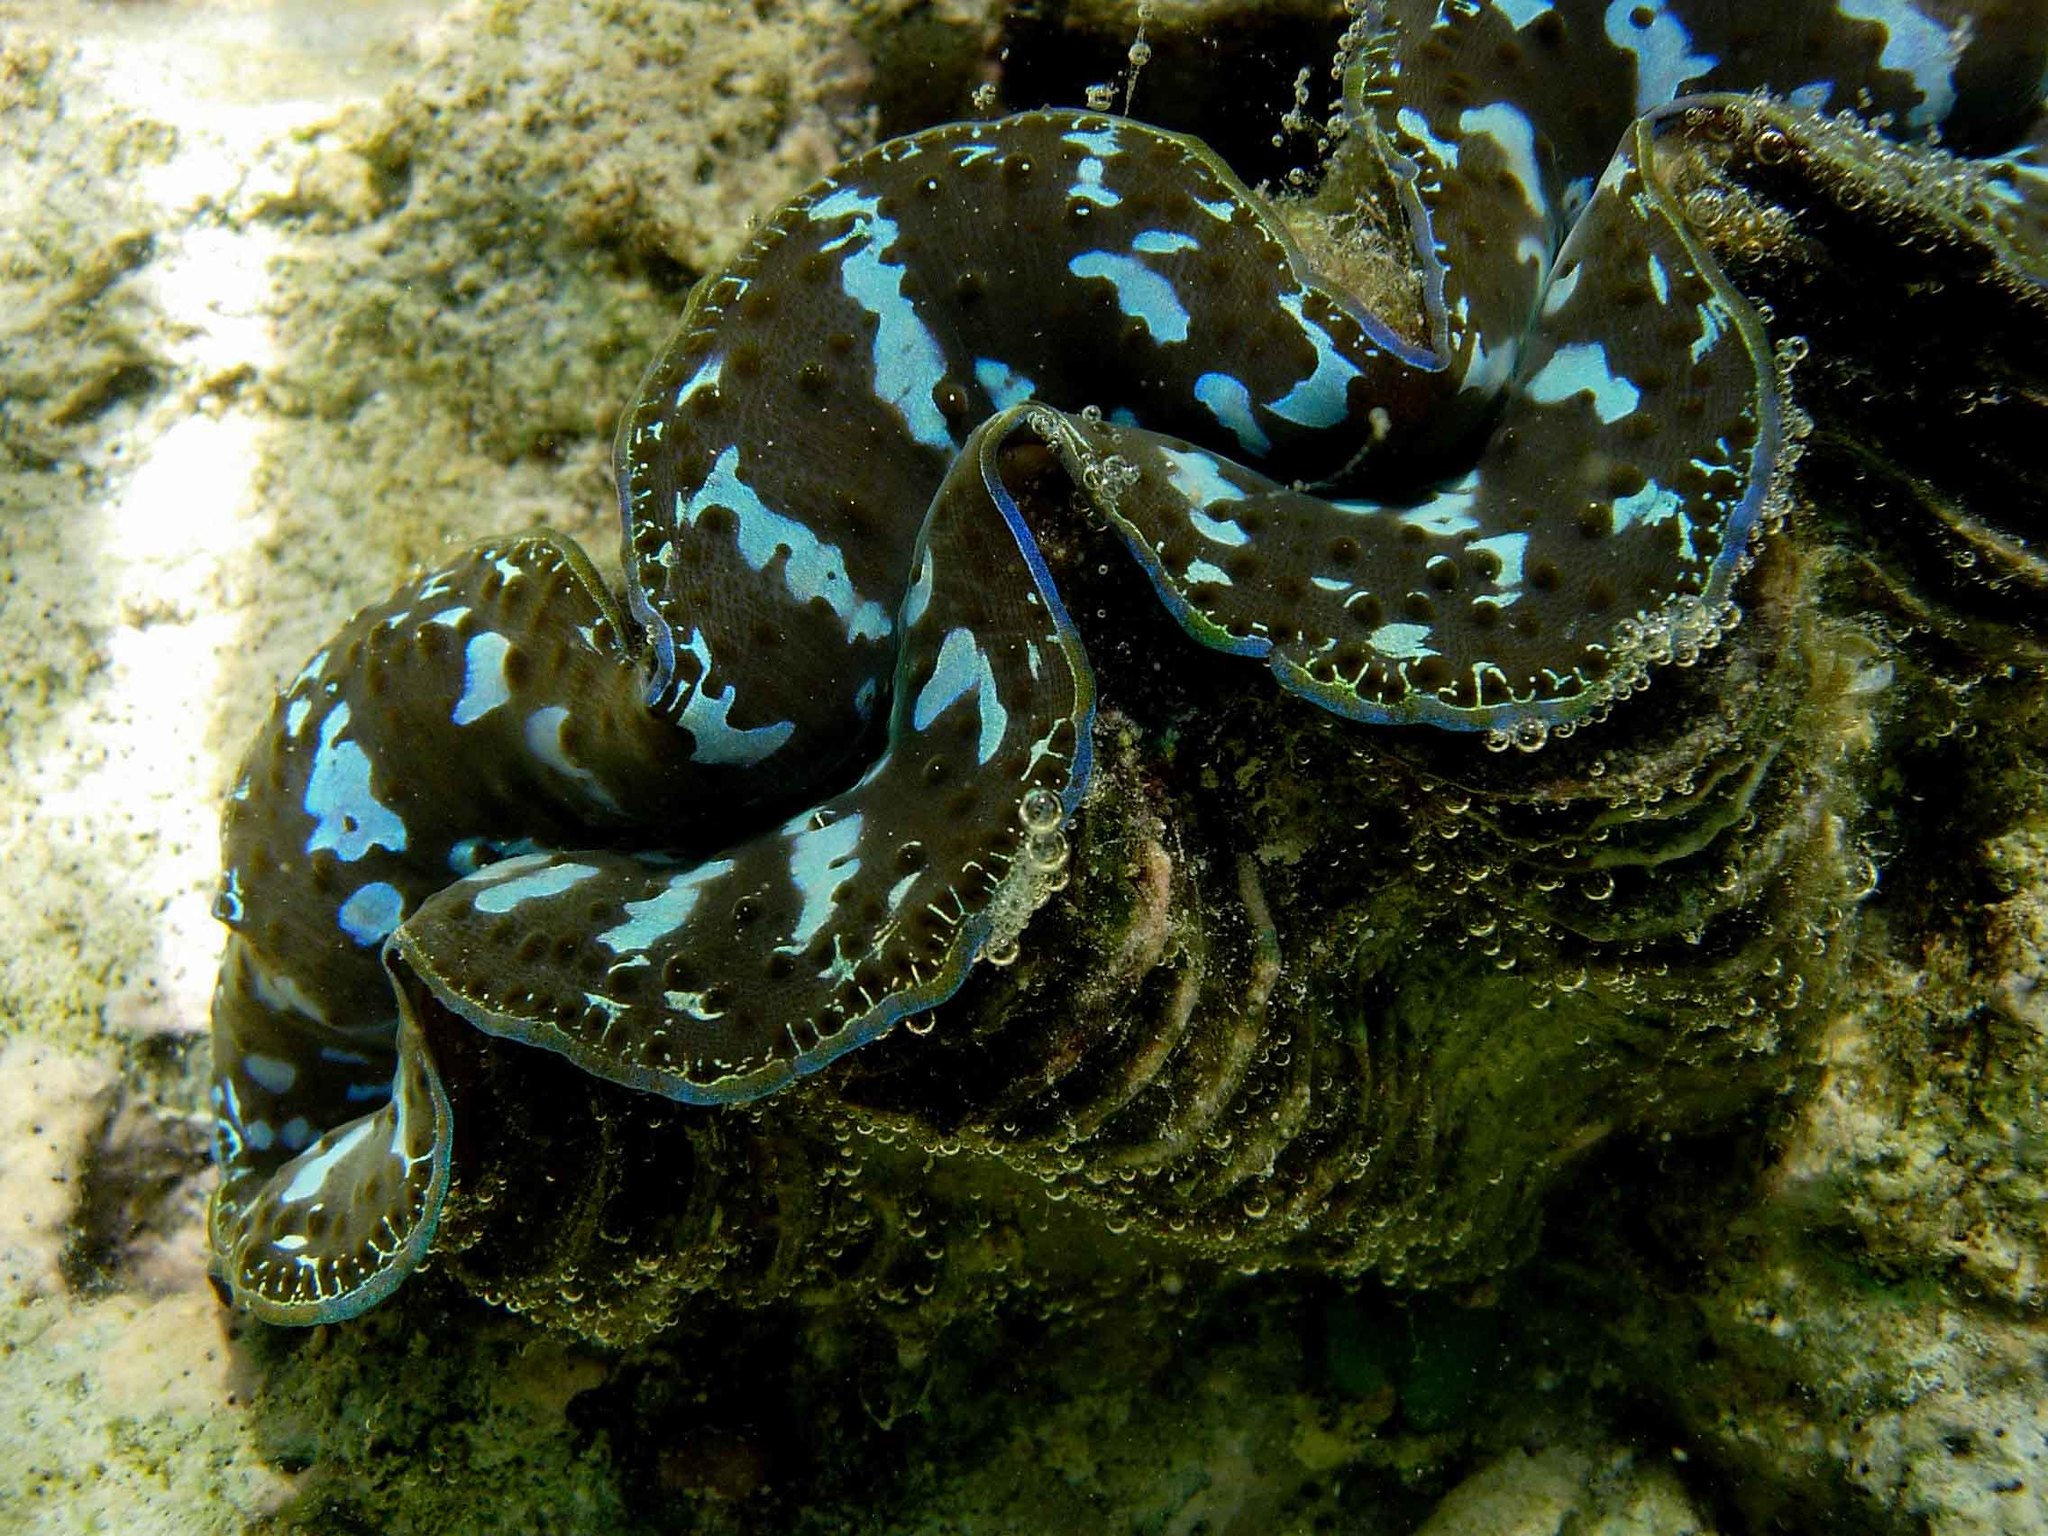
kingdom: Animalia
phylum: Mollusca
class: Bivalvia
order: Cardiida
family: Cardiidae
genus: Tridacna
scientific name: Tridacna maxima
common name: Small giant clam
